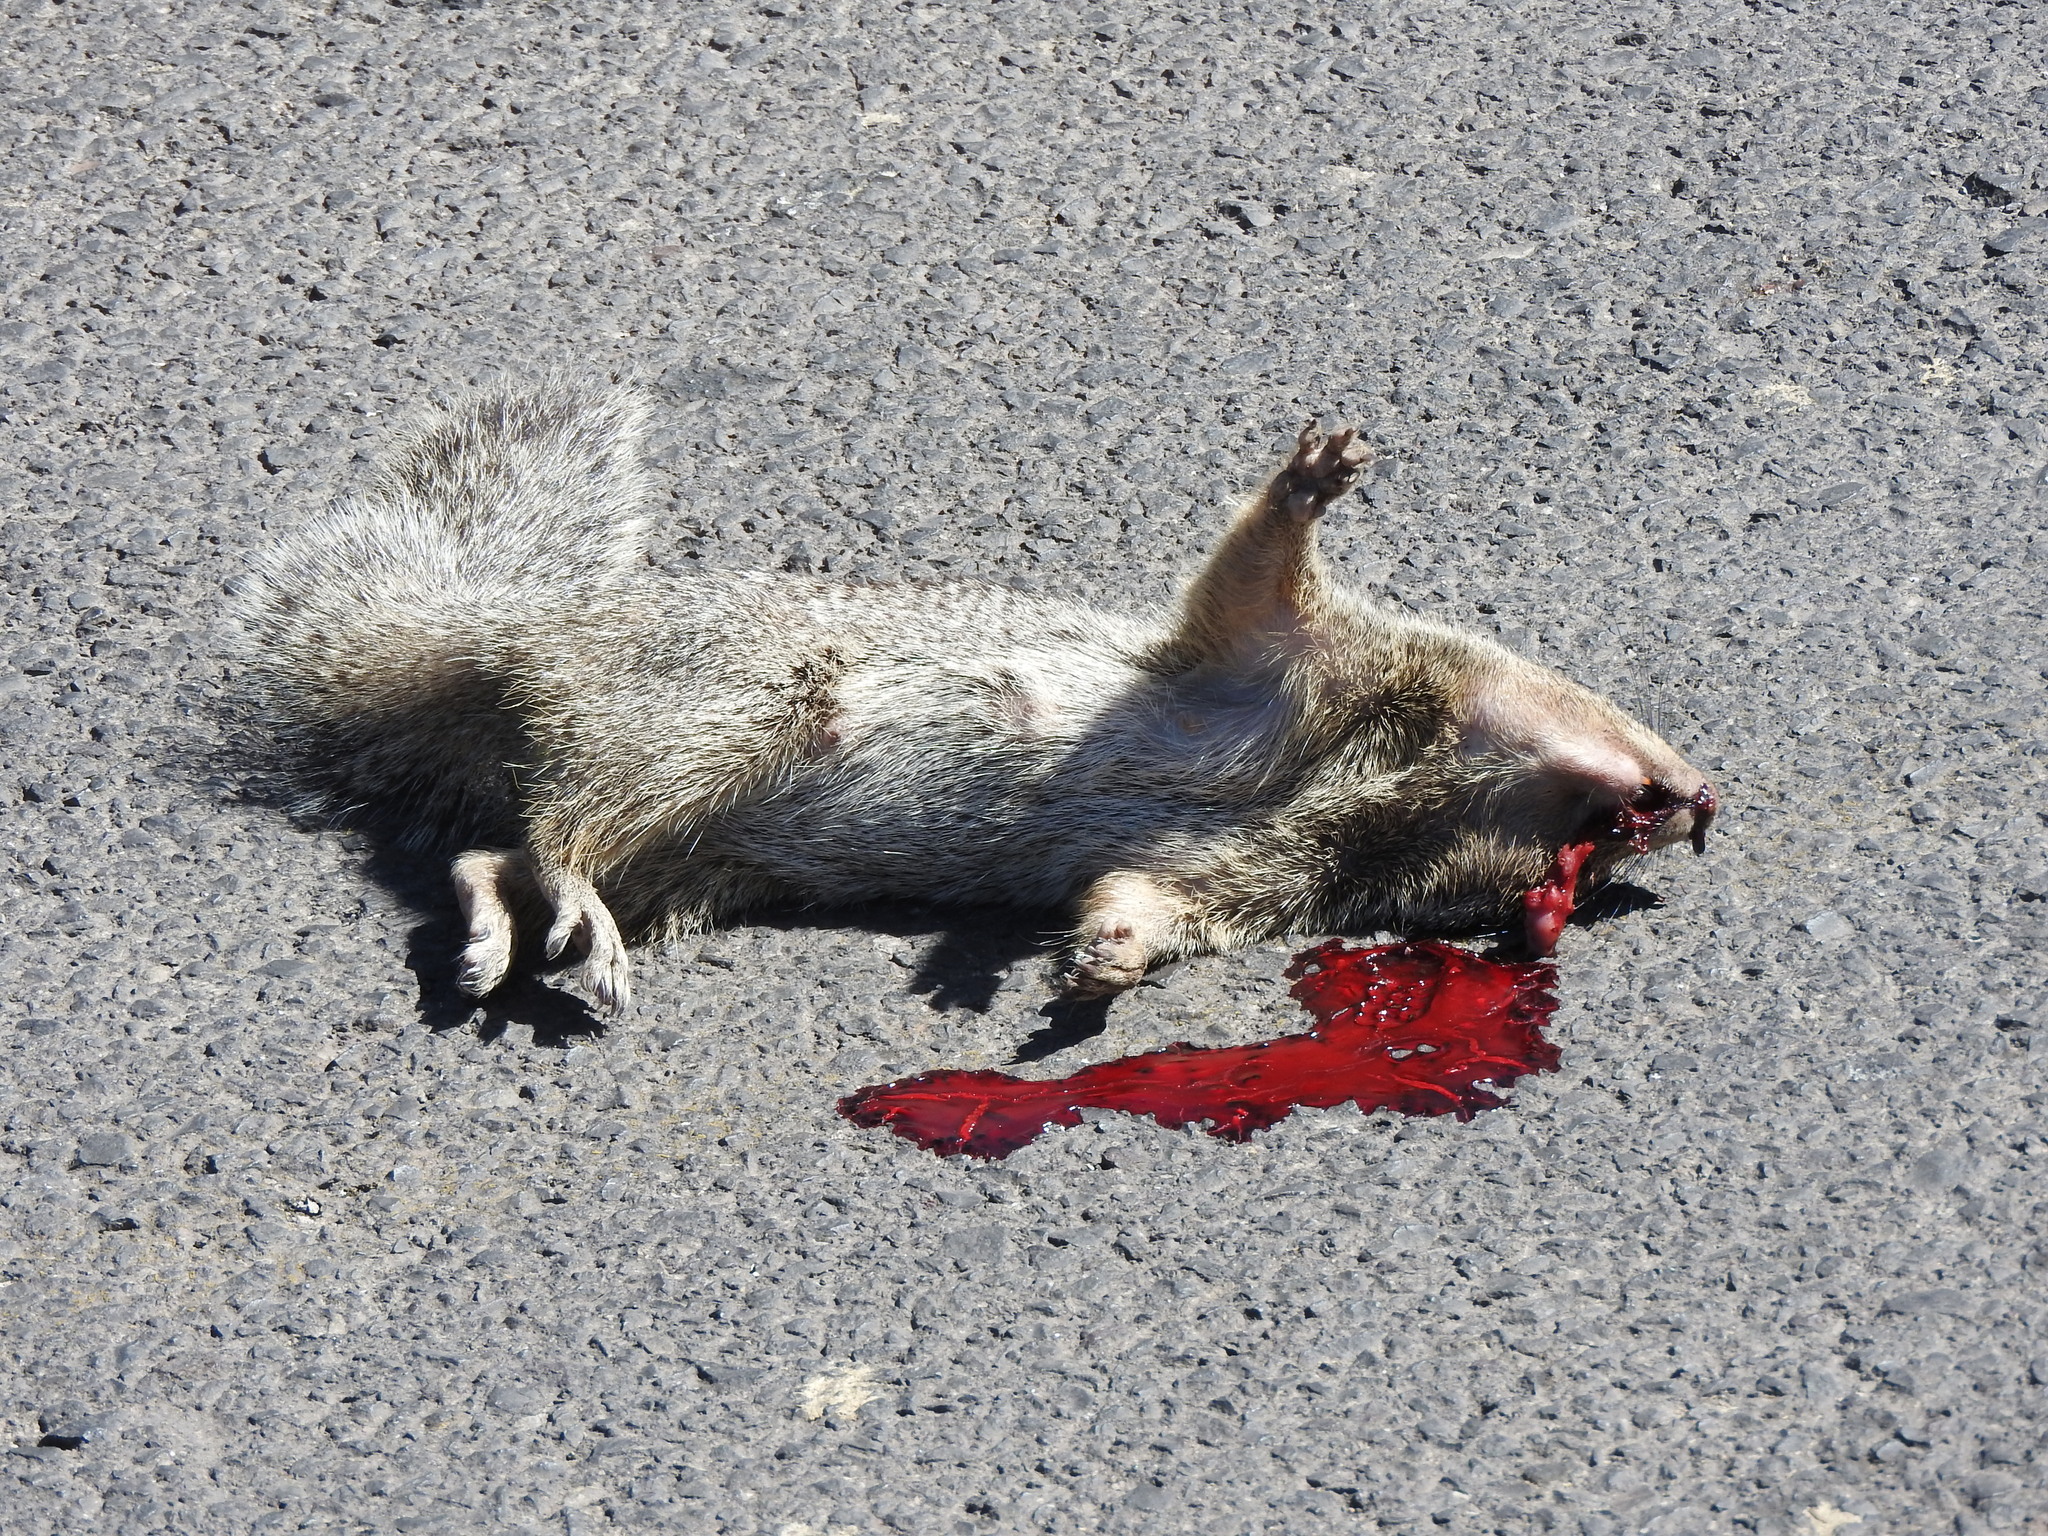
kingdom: Animalia
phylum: Chordata
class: Mammalia
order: Rodentia
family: Sciuridae
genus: Otospermophilus
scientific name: Otospermophilus variegatus
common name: Rock squirrel
